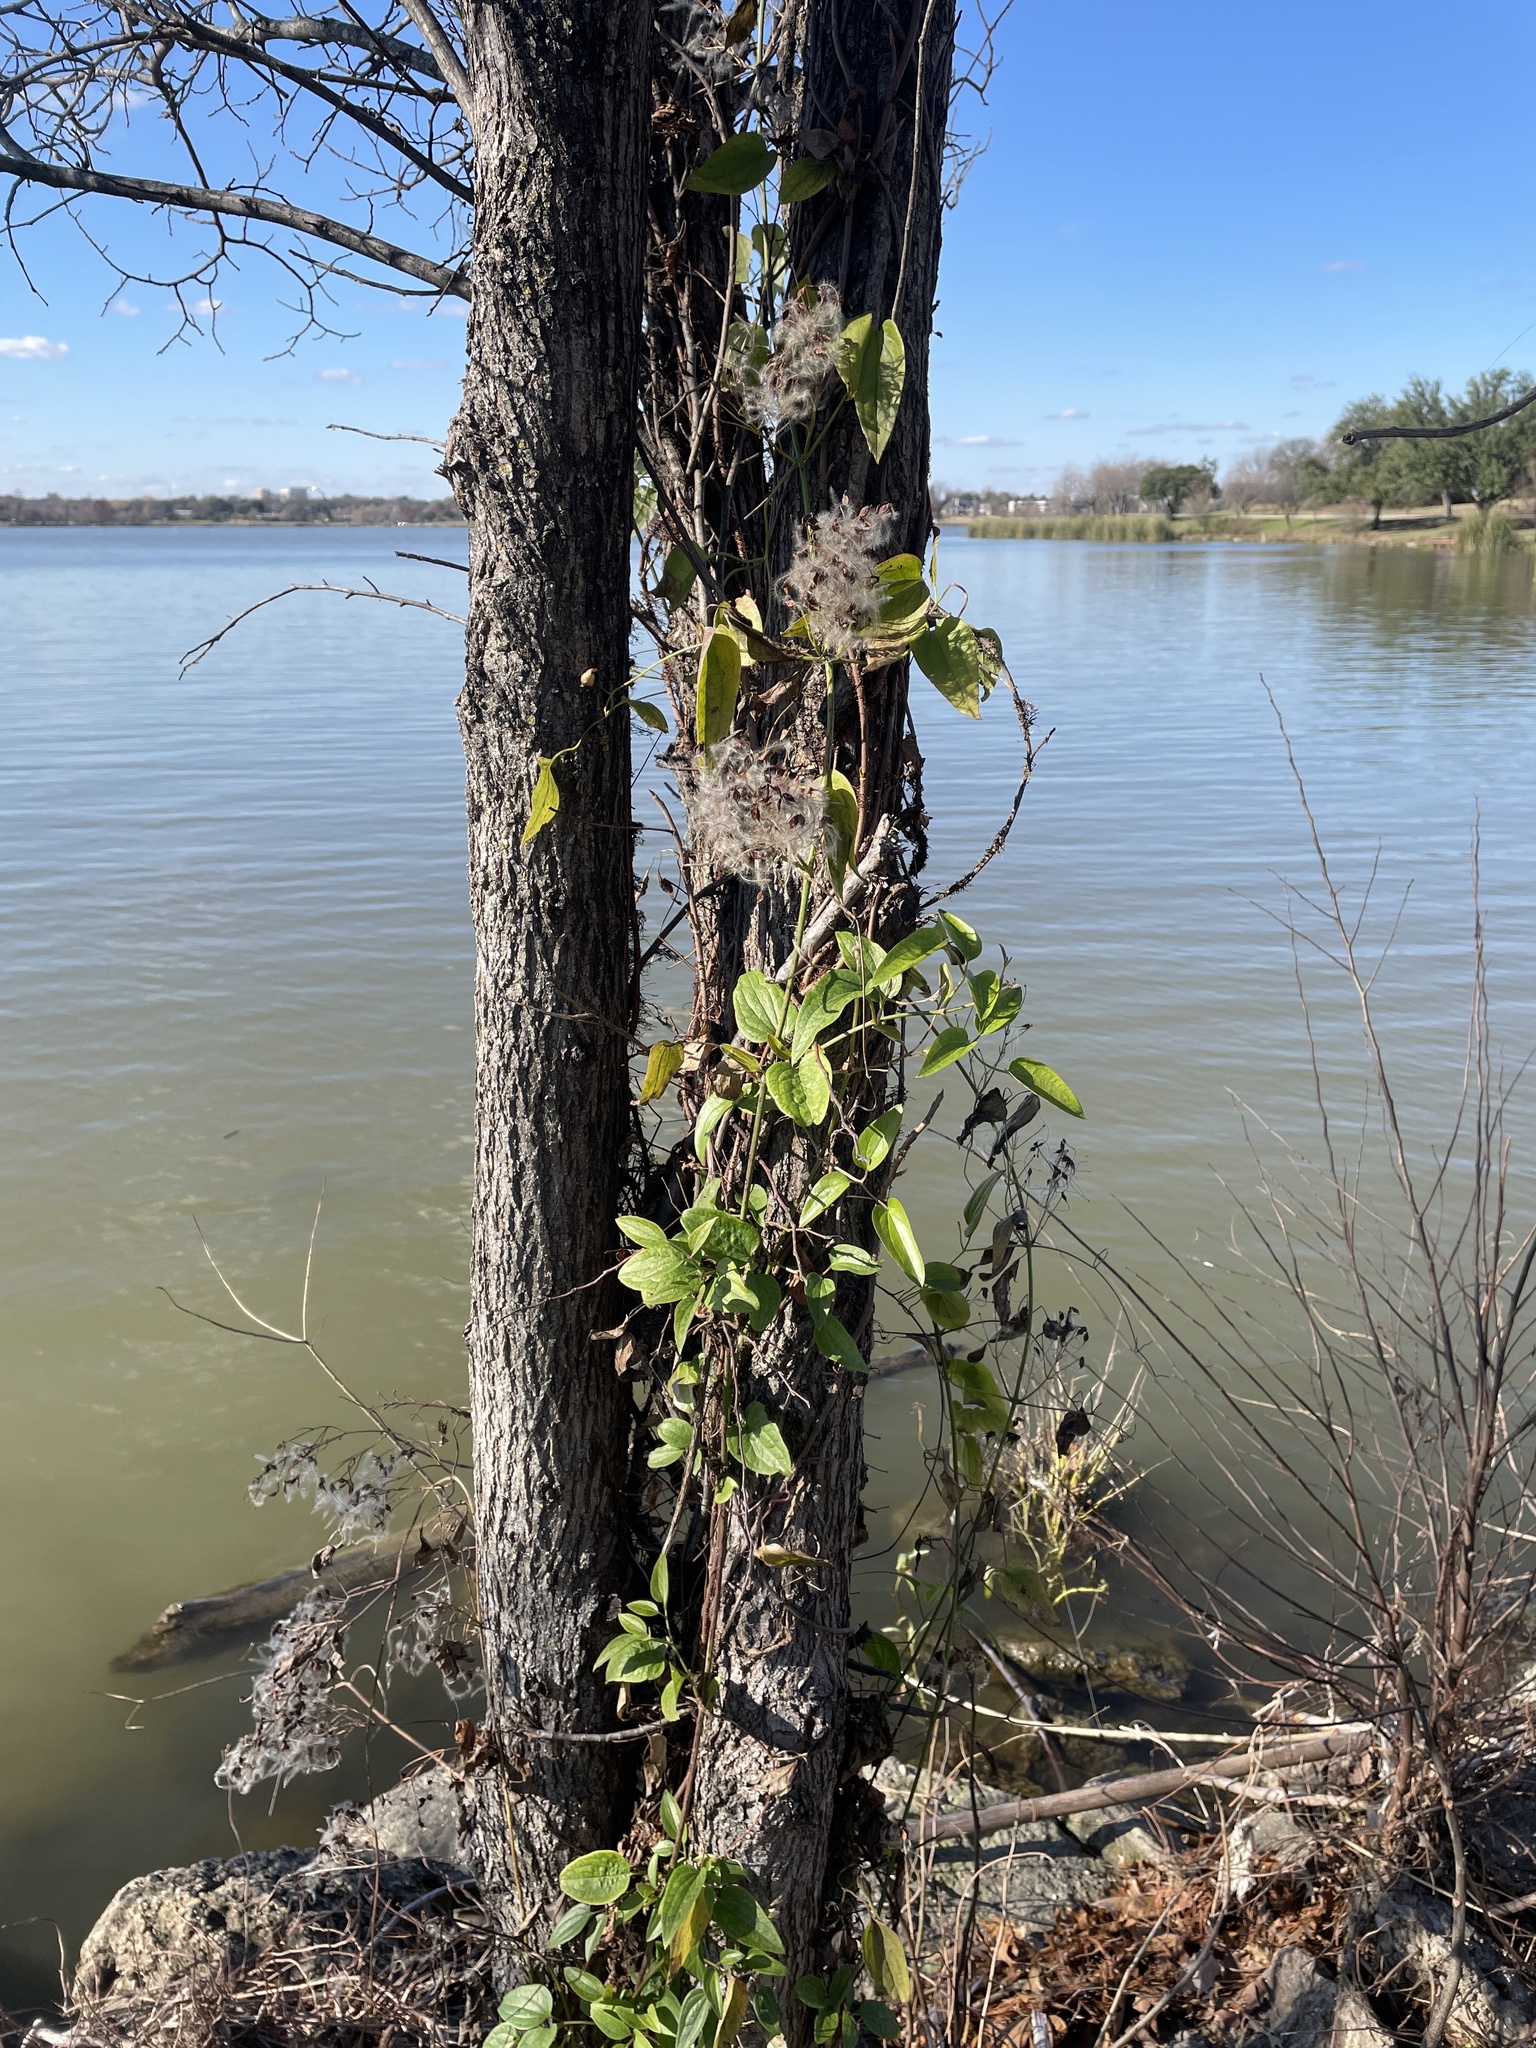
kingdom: Plantae
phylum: Tracheophyta
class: Magnoliopsida
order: Ranunculales
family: Ranunculaceae
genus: Clematis
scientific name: Clematis terniflora
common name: Sweet autumn clematis
